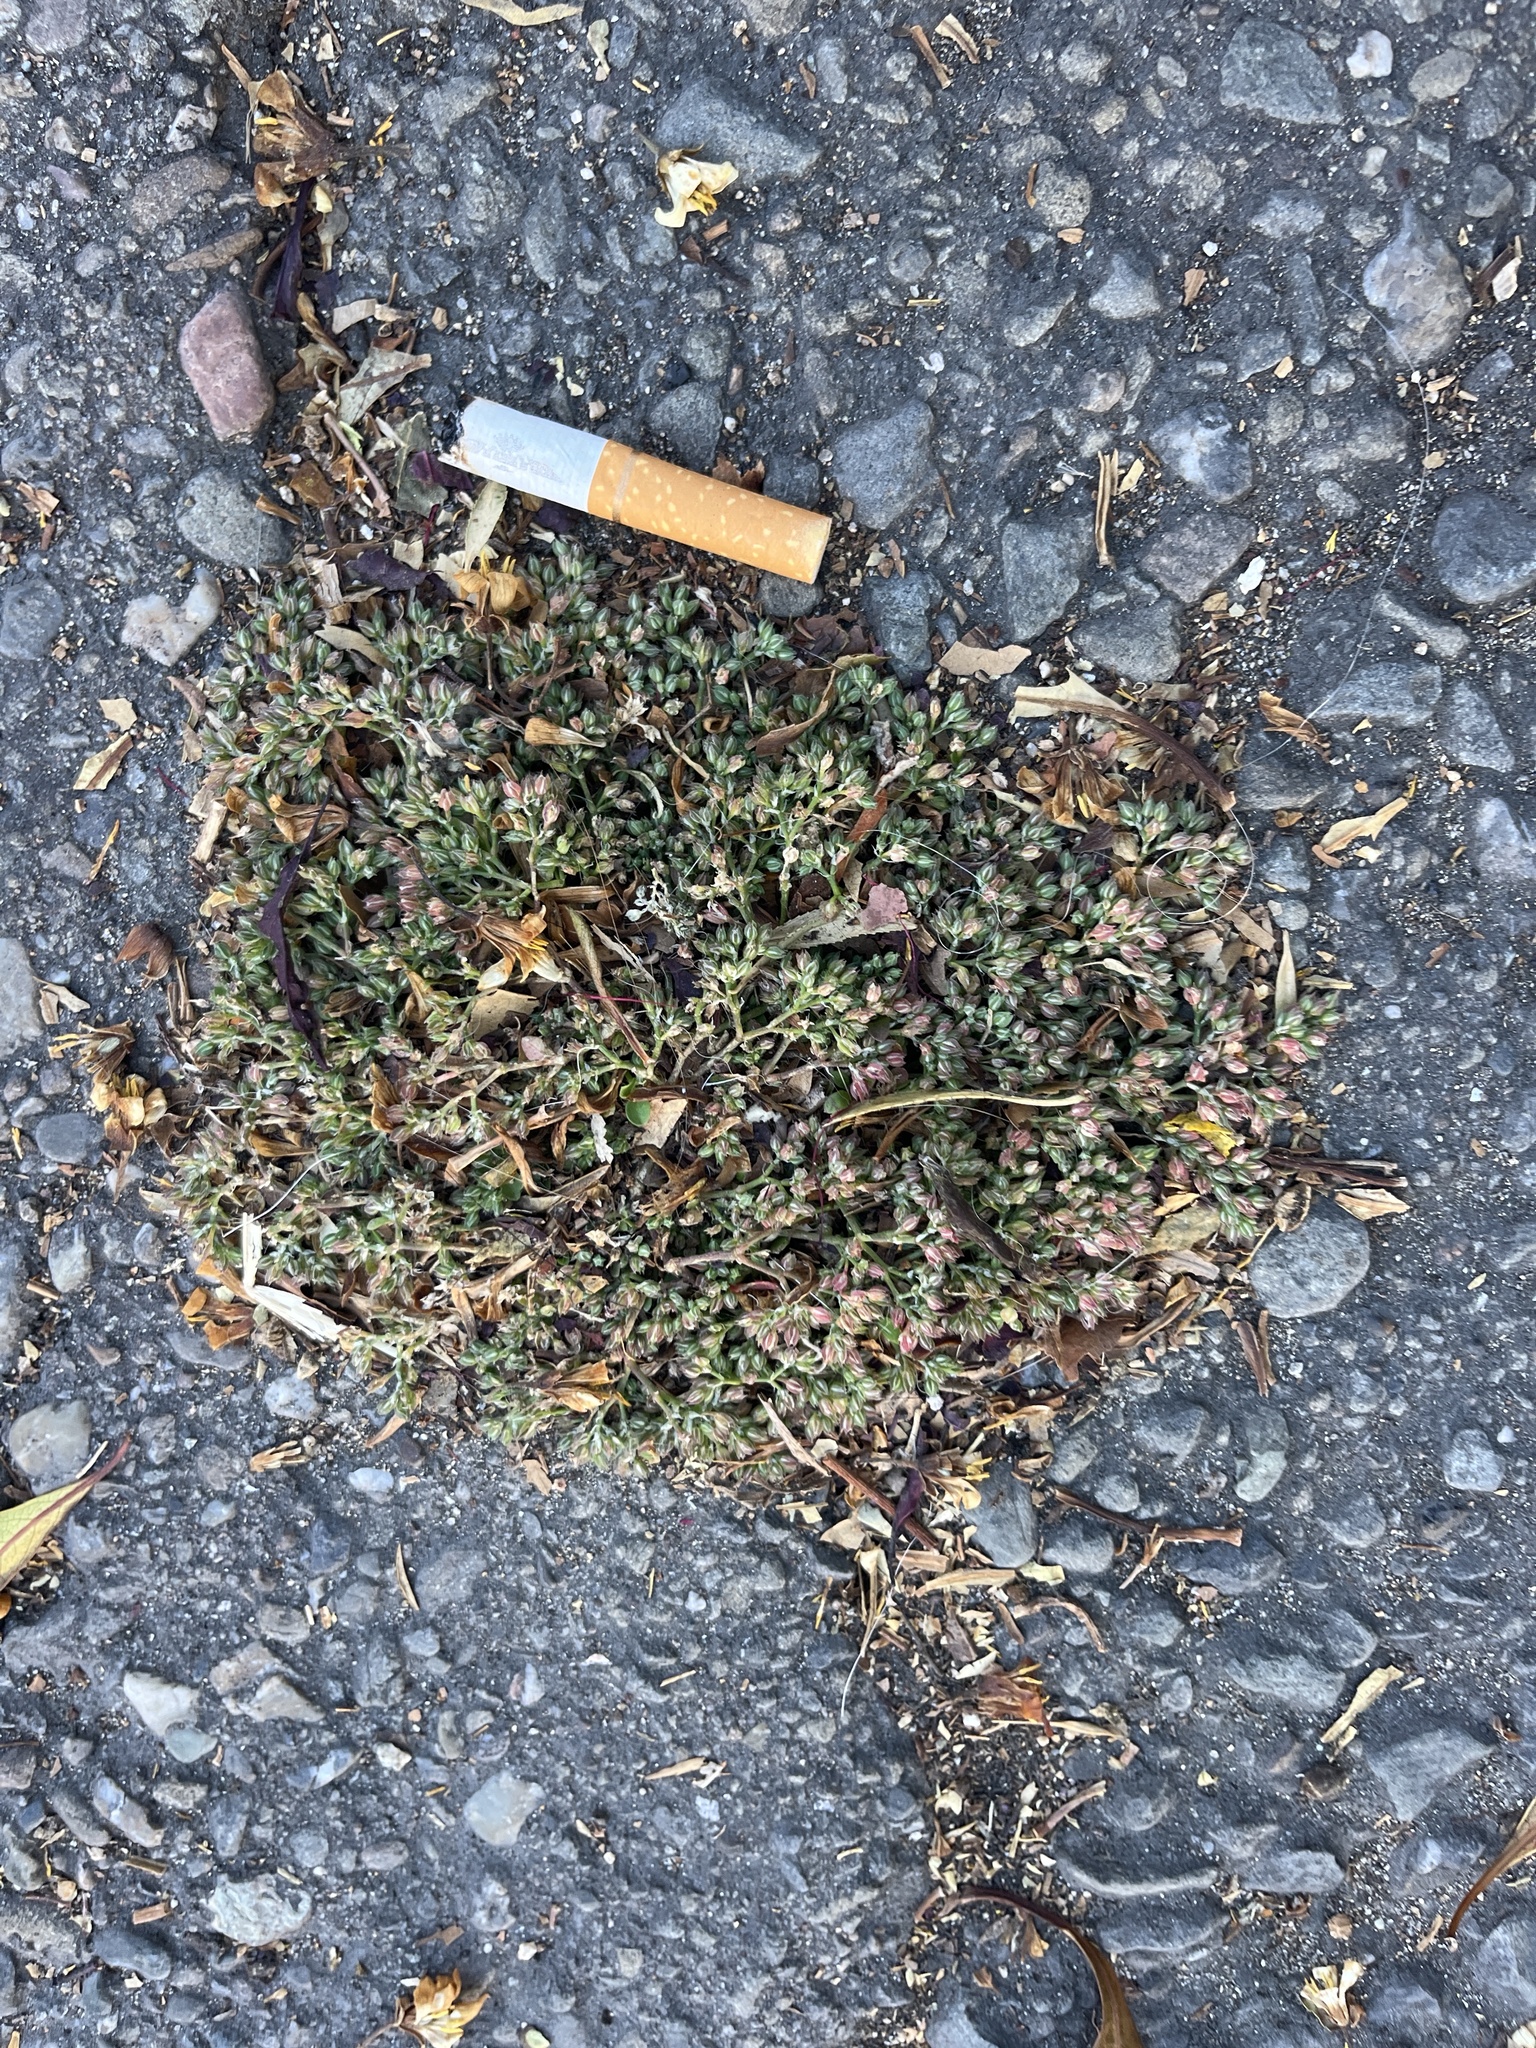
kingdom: Plantae
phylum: Tracheophyta
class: Magnoliopsida
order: Caryophyllales
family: Caryophyllaceae
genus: Polycarpon
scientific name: Polycarpon tetraphyllum
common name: Four-leaved all-seed
